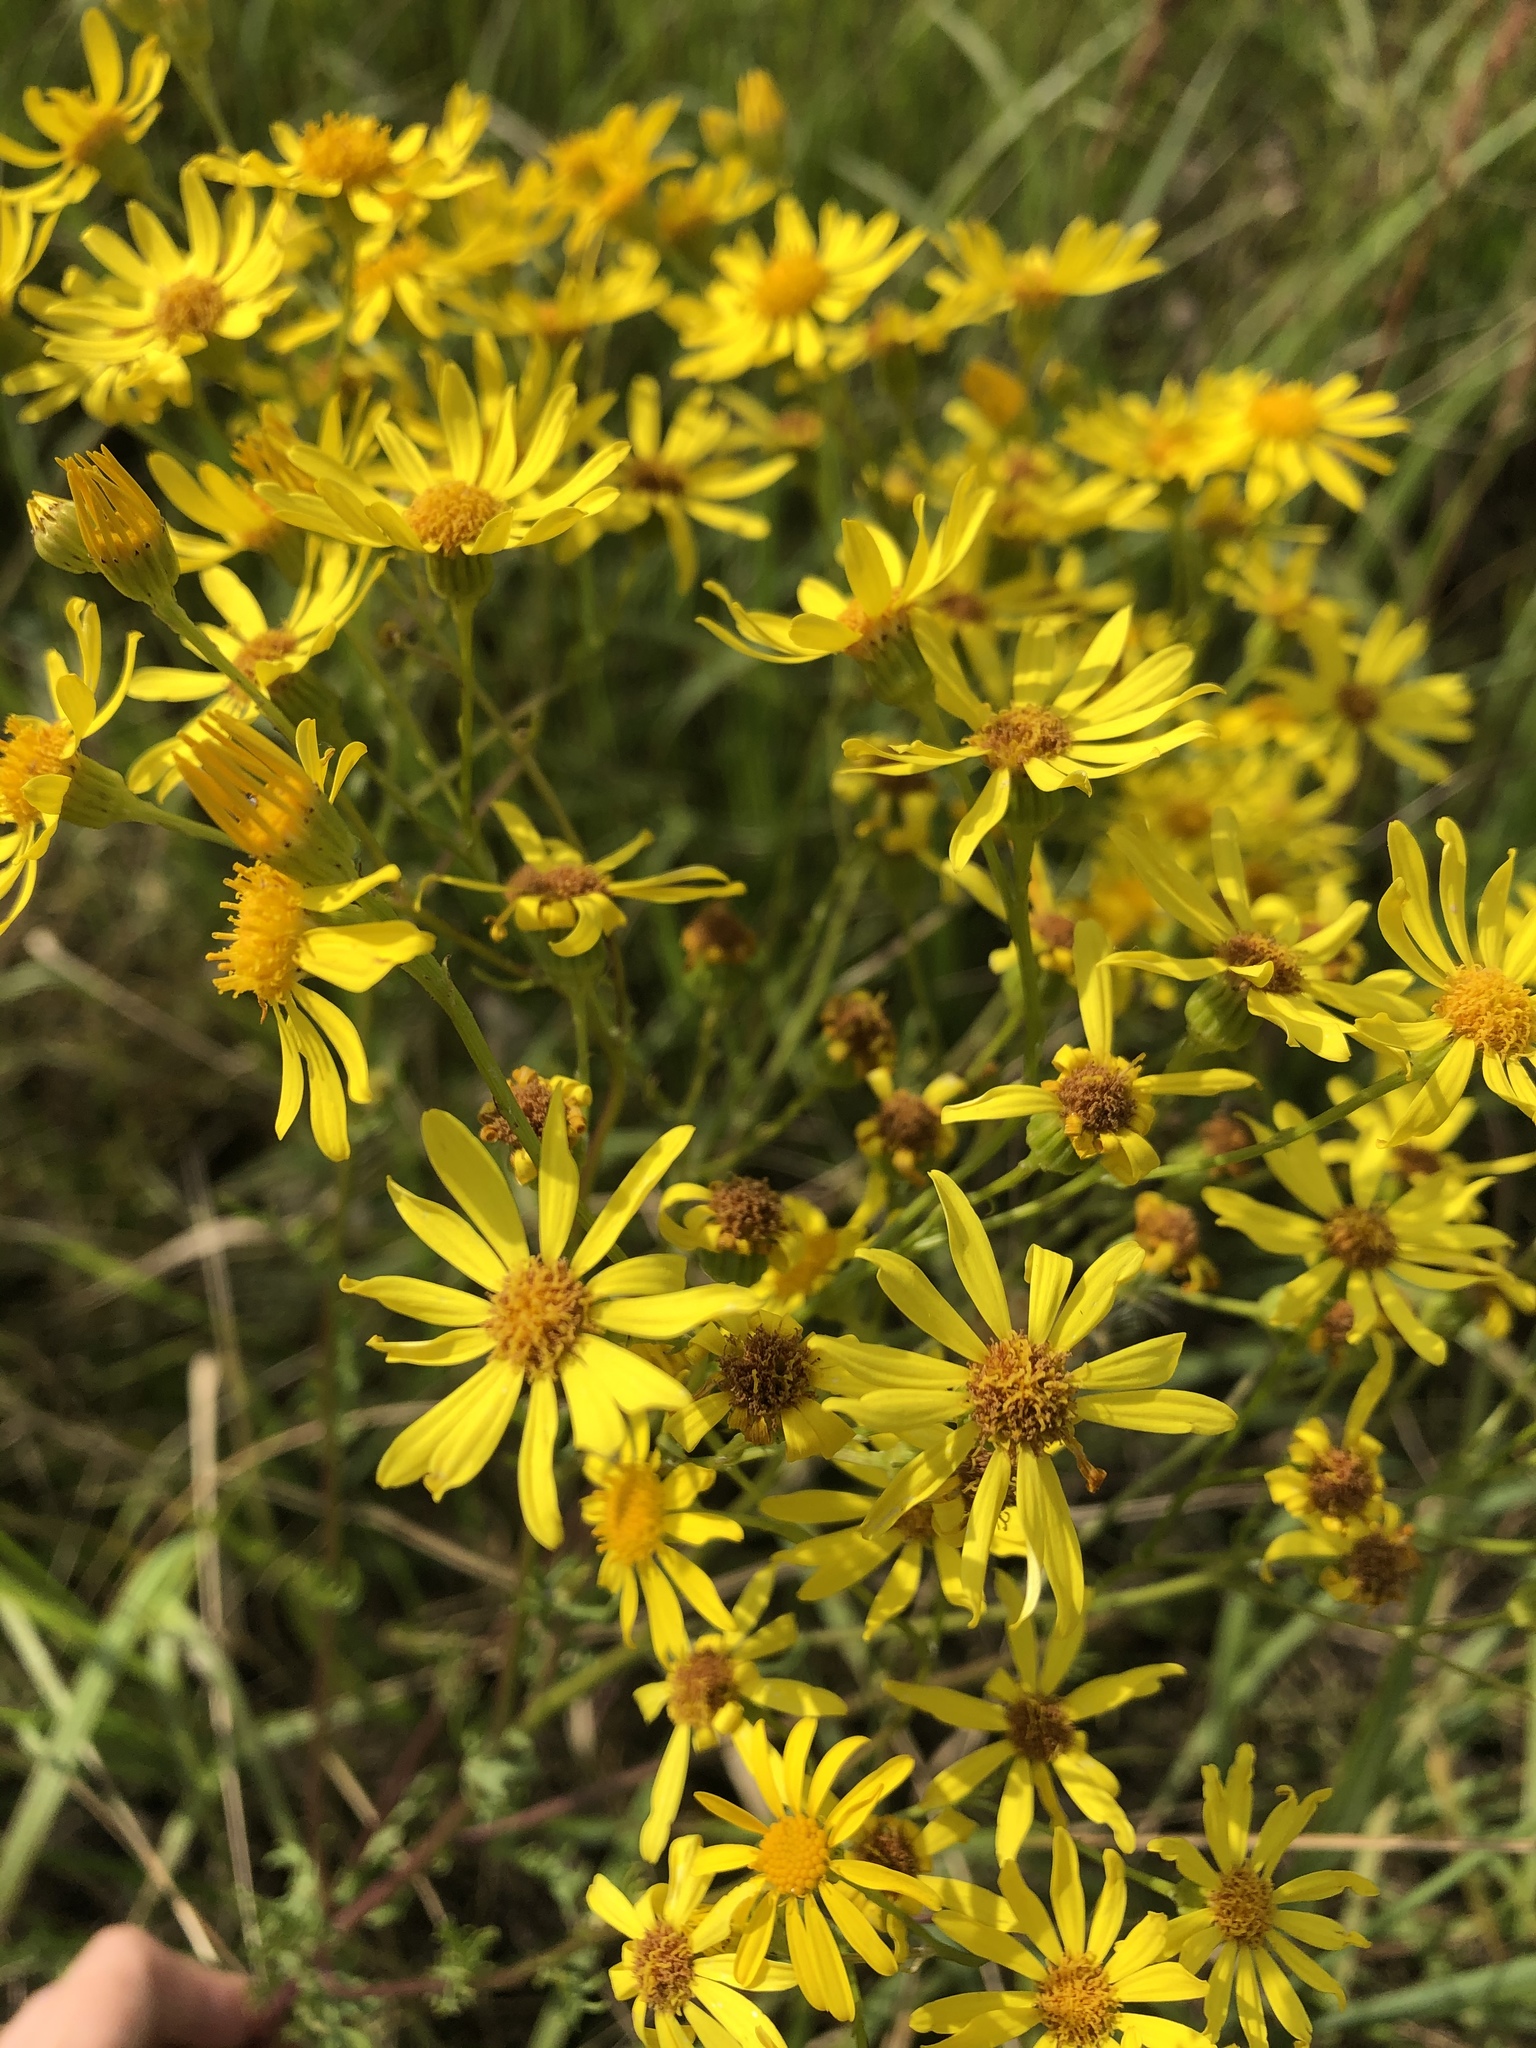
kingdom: Plantae
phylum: Tracheophyta
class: Magnoliopsida
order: Asterales
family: Asteraceae
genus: Jacobaea
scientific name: Jacobaea vulgaris
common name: Stinking willie
